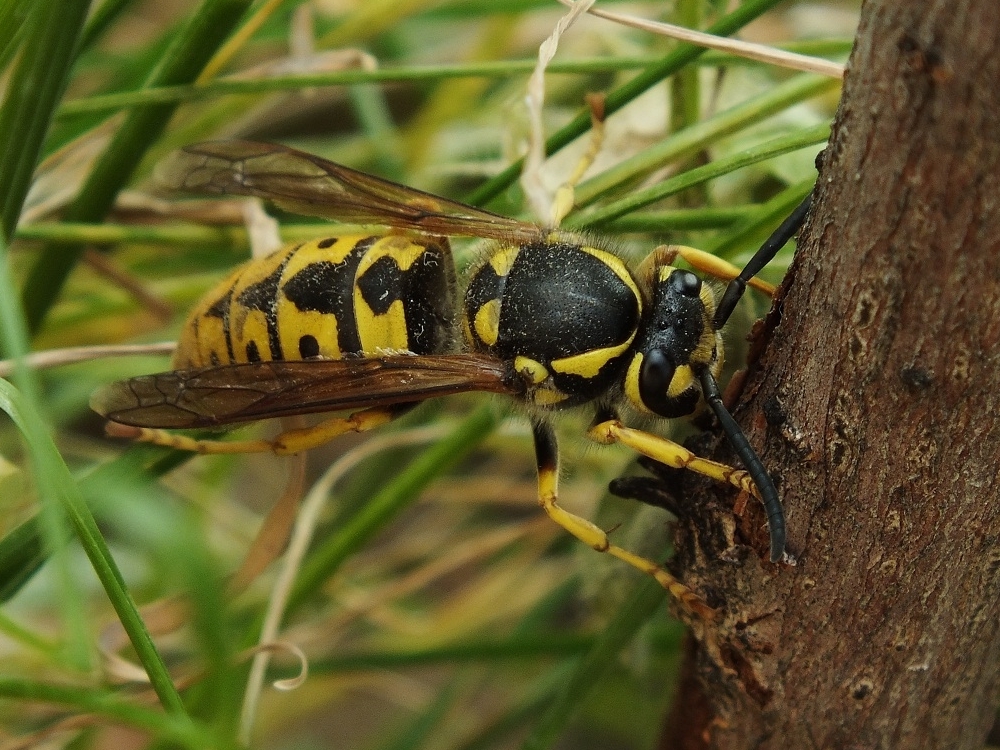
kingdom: Animalia
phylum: Arthropoda
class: Insecta
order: Hymenoptera
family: Vespidae
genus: Vespula
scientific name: Vespula germanica
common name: German wasp
